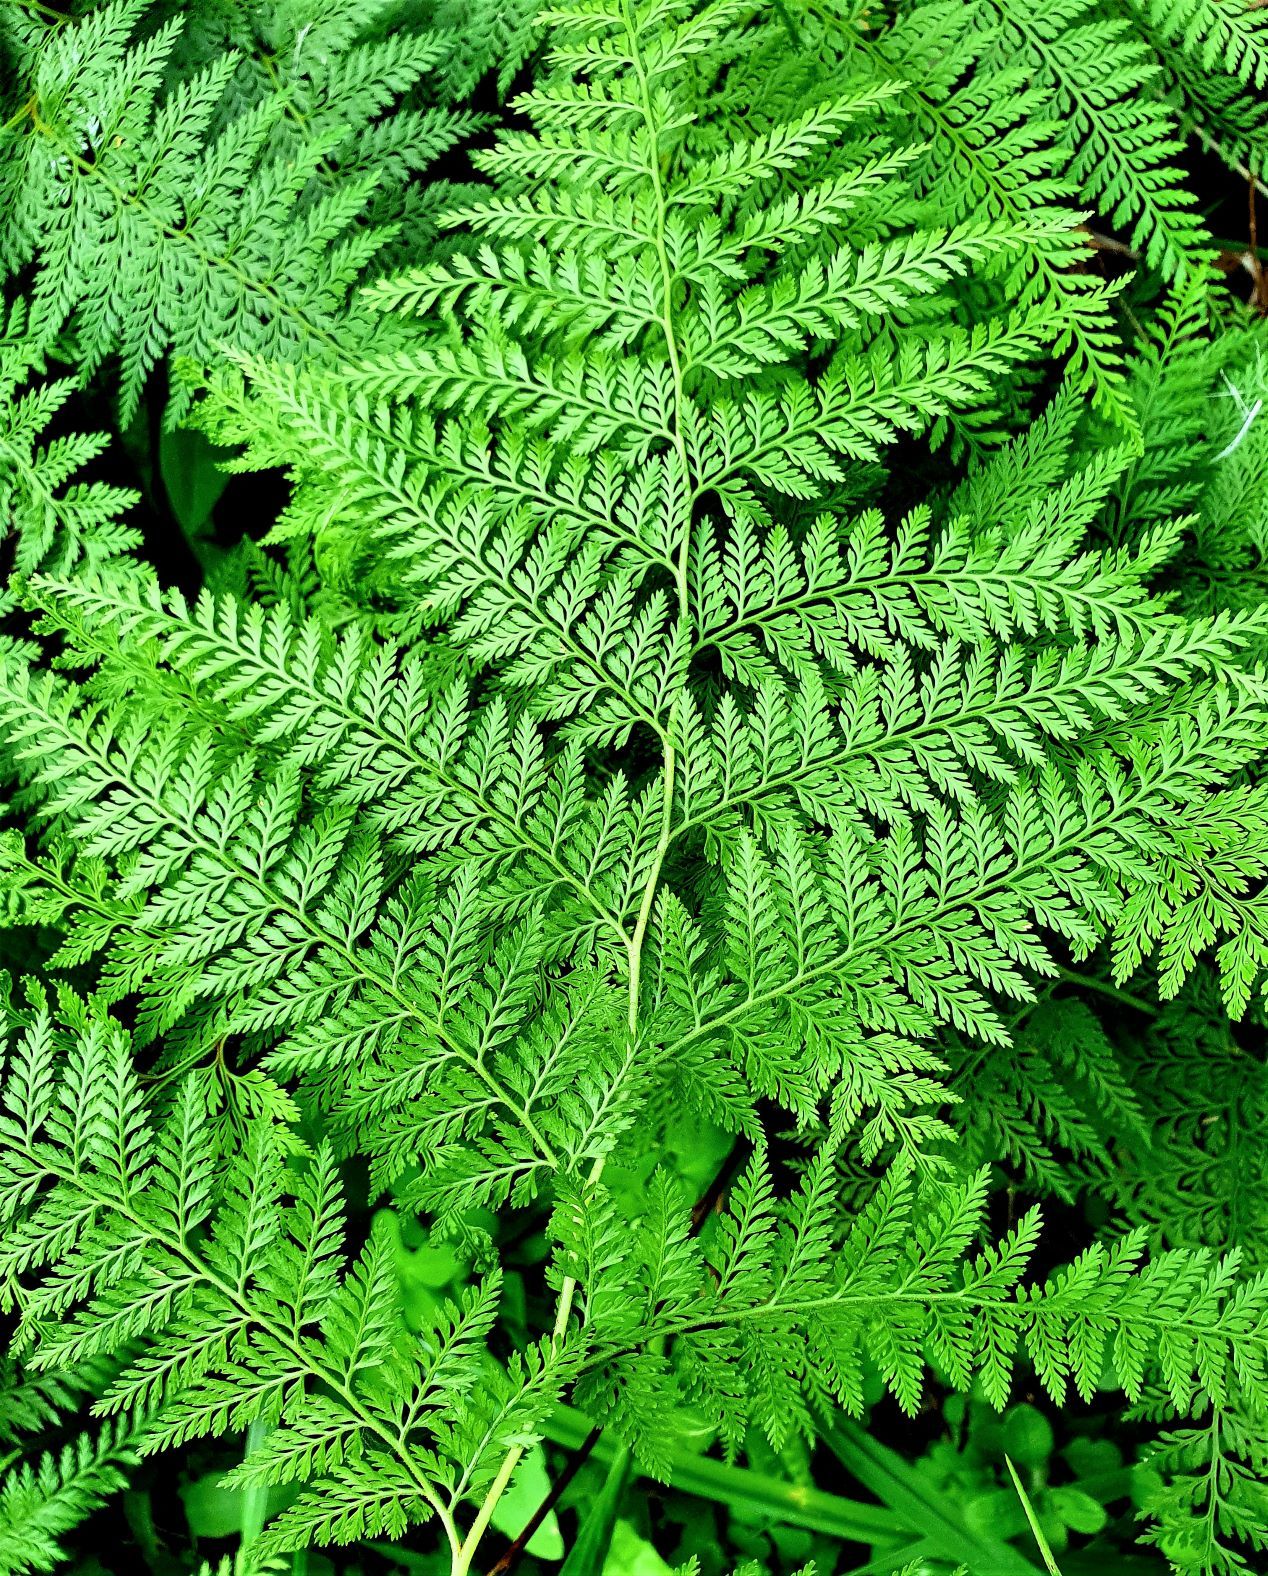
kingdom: Plantae
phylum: Tracheophyta
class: Polypodiopsida
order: Polypodiales
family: Dennstaedtiaceae
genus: Paesia
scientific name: Paesia scaberula
